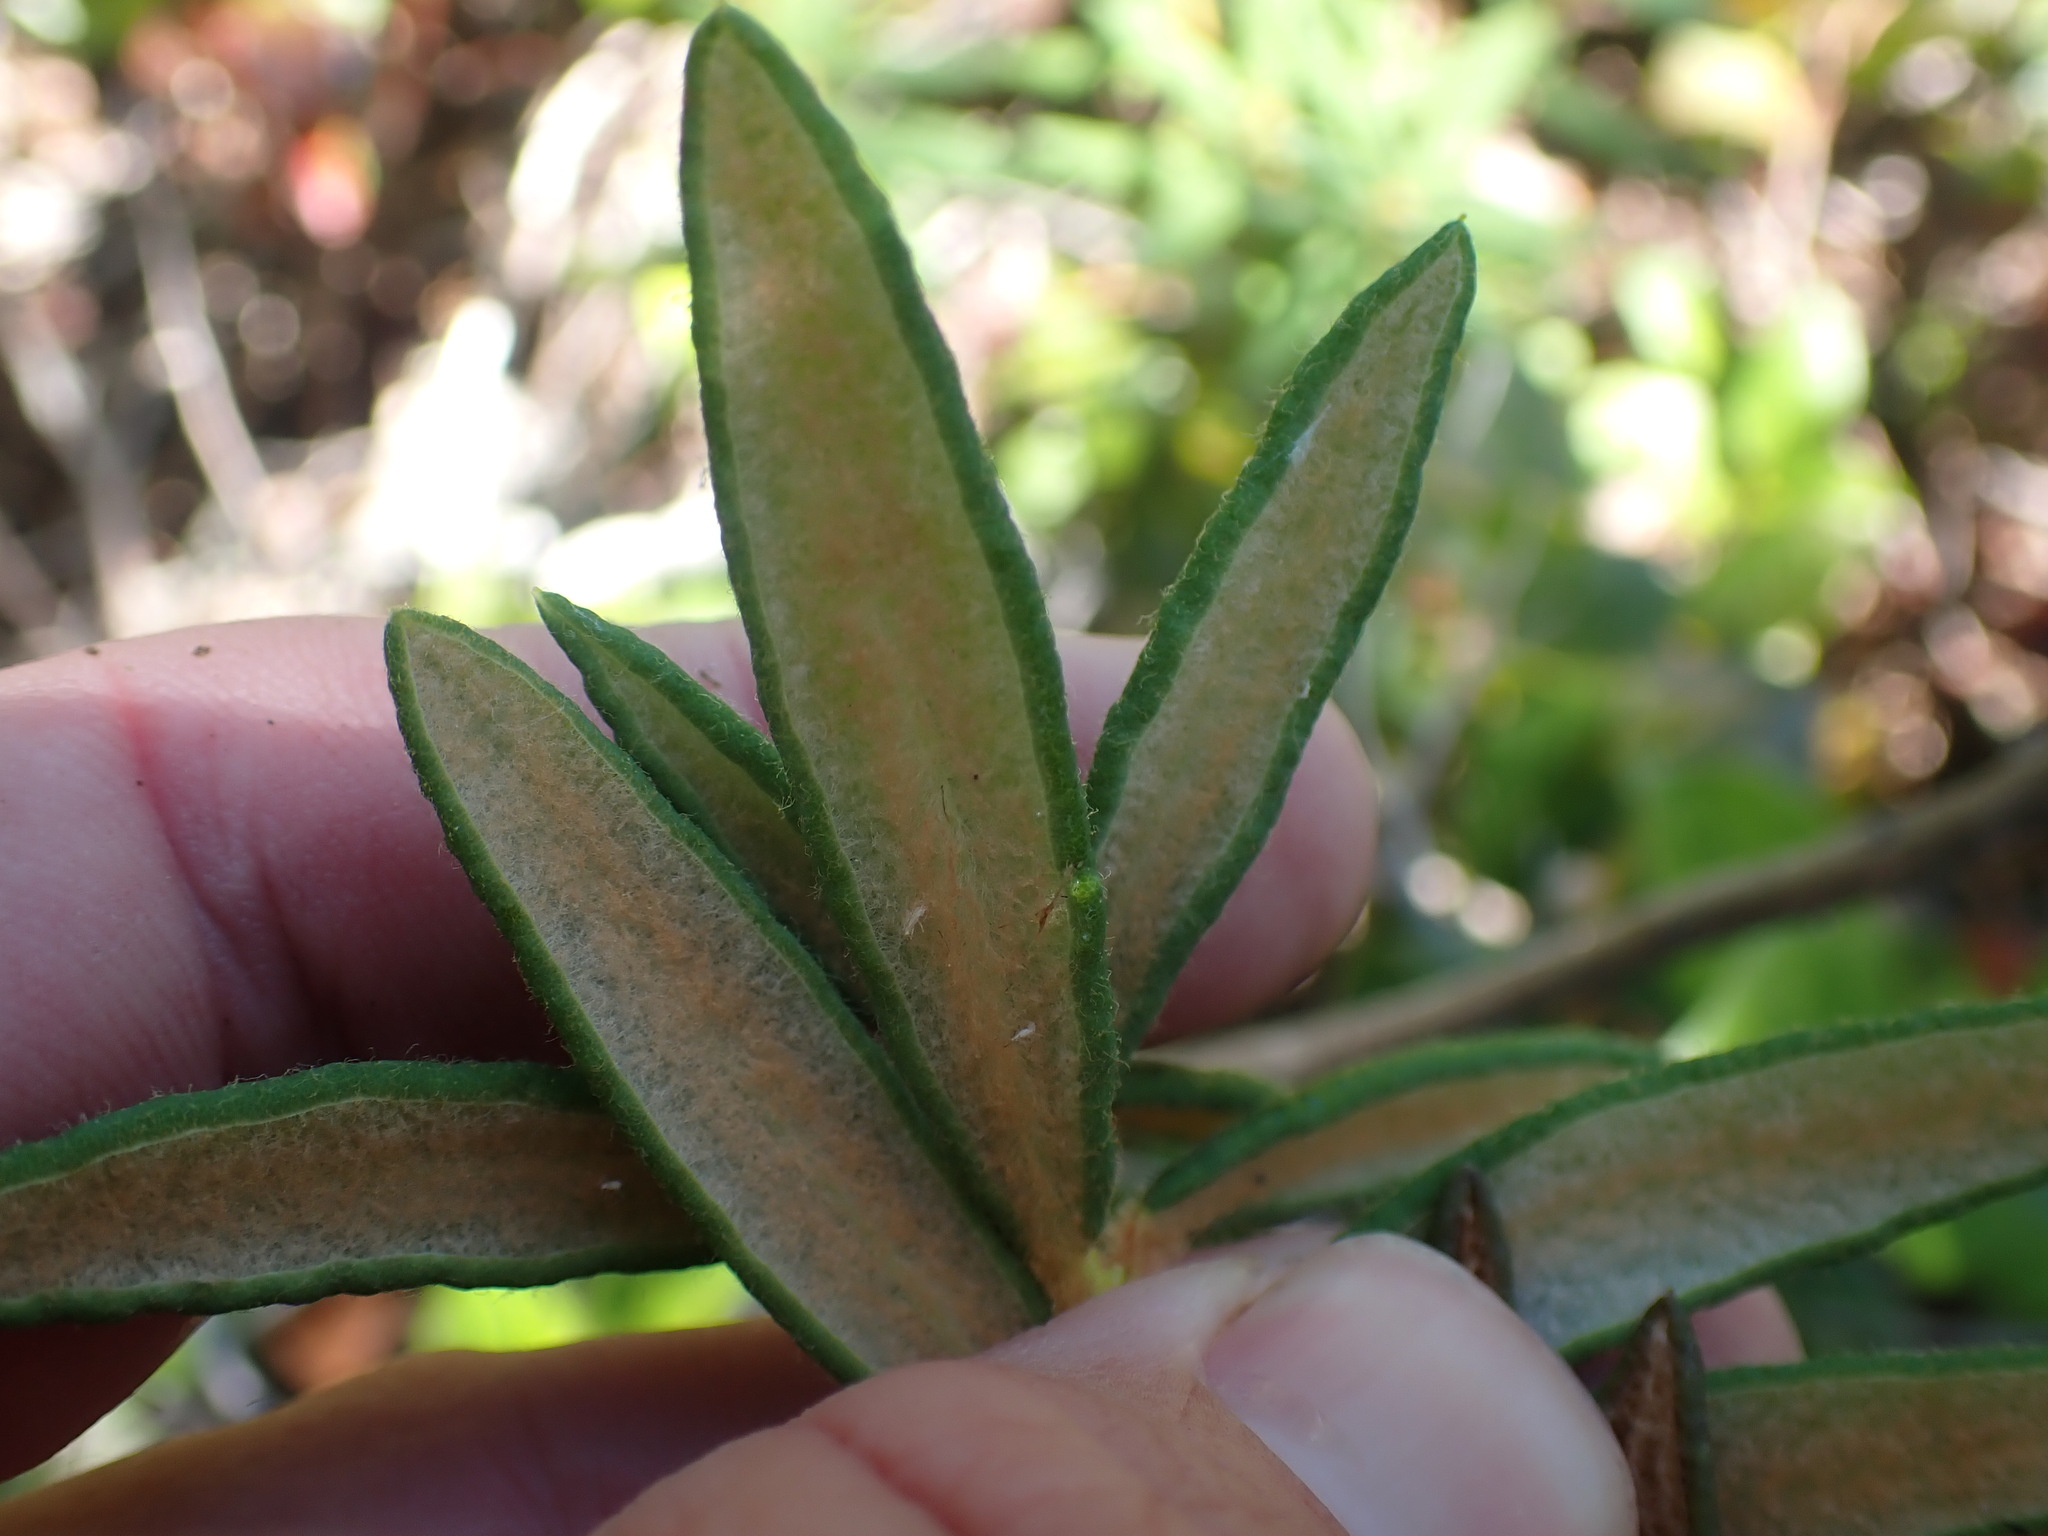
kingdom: Plantae
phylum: Tracheophyta
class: Magnoliopsida
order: Ericales
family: Ericaceae
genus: Rhododendron
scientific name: Rhododendron groenlandicum
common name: Bog labrador tea
